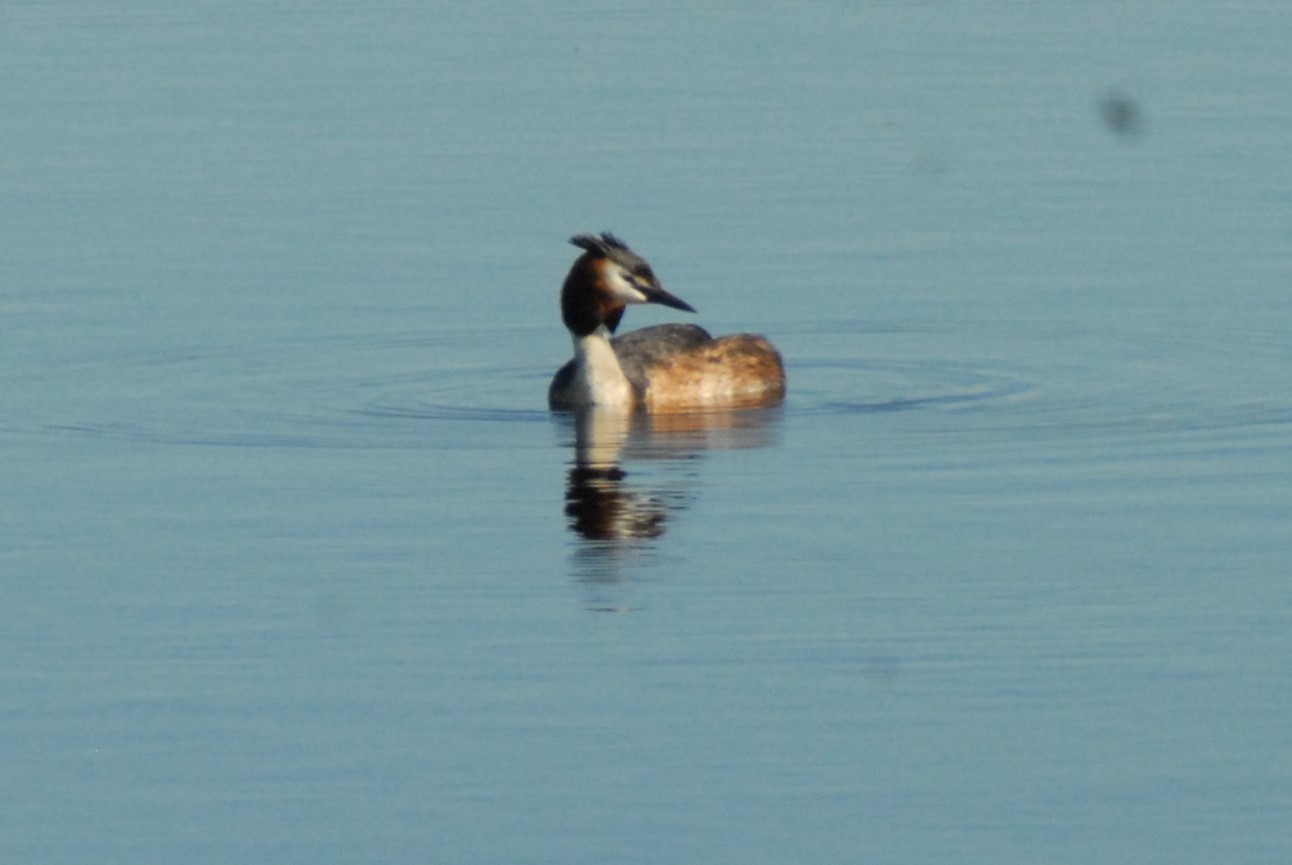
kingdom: Animalia
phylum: Chordata
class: Aves
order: Podicipediformes
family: Podicipedidae
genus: Podiceps
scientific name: Podiceps cristatus
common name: Great crested grebe
